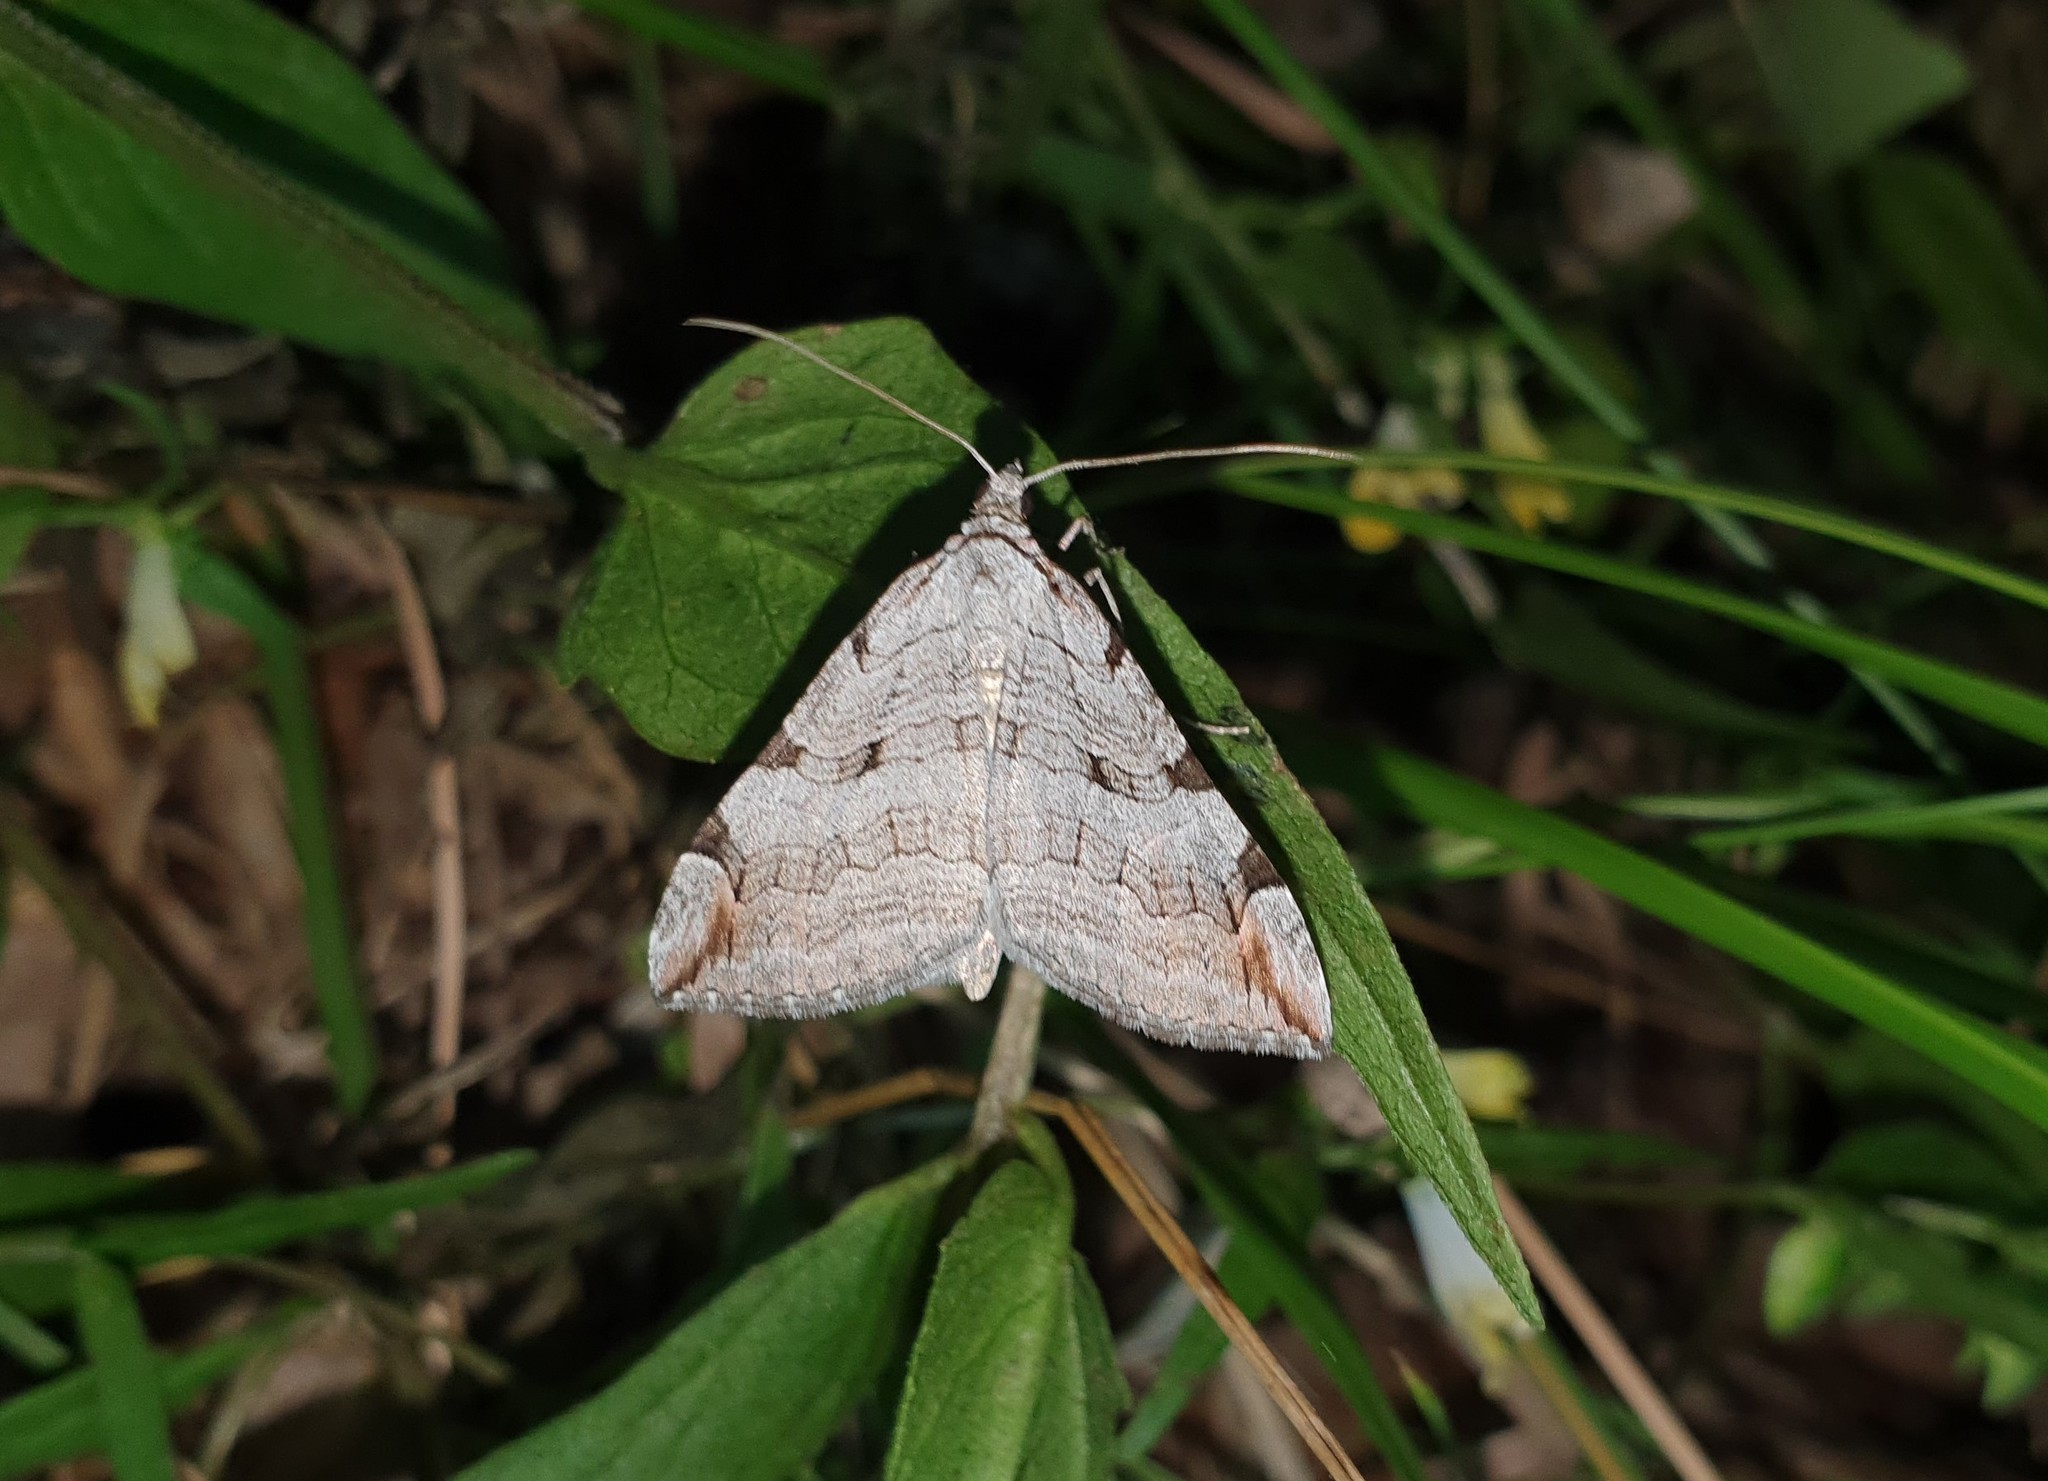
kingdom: Animalia
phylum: Arthropoda
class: Insecta
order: Lepidoptera
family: Geometridae
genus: Aplocera
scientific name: Aplocera plagiata
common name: Treble-bar
